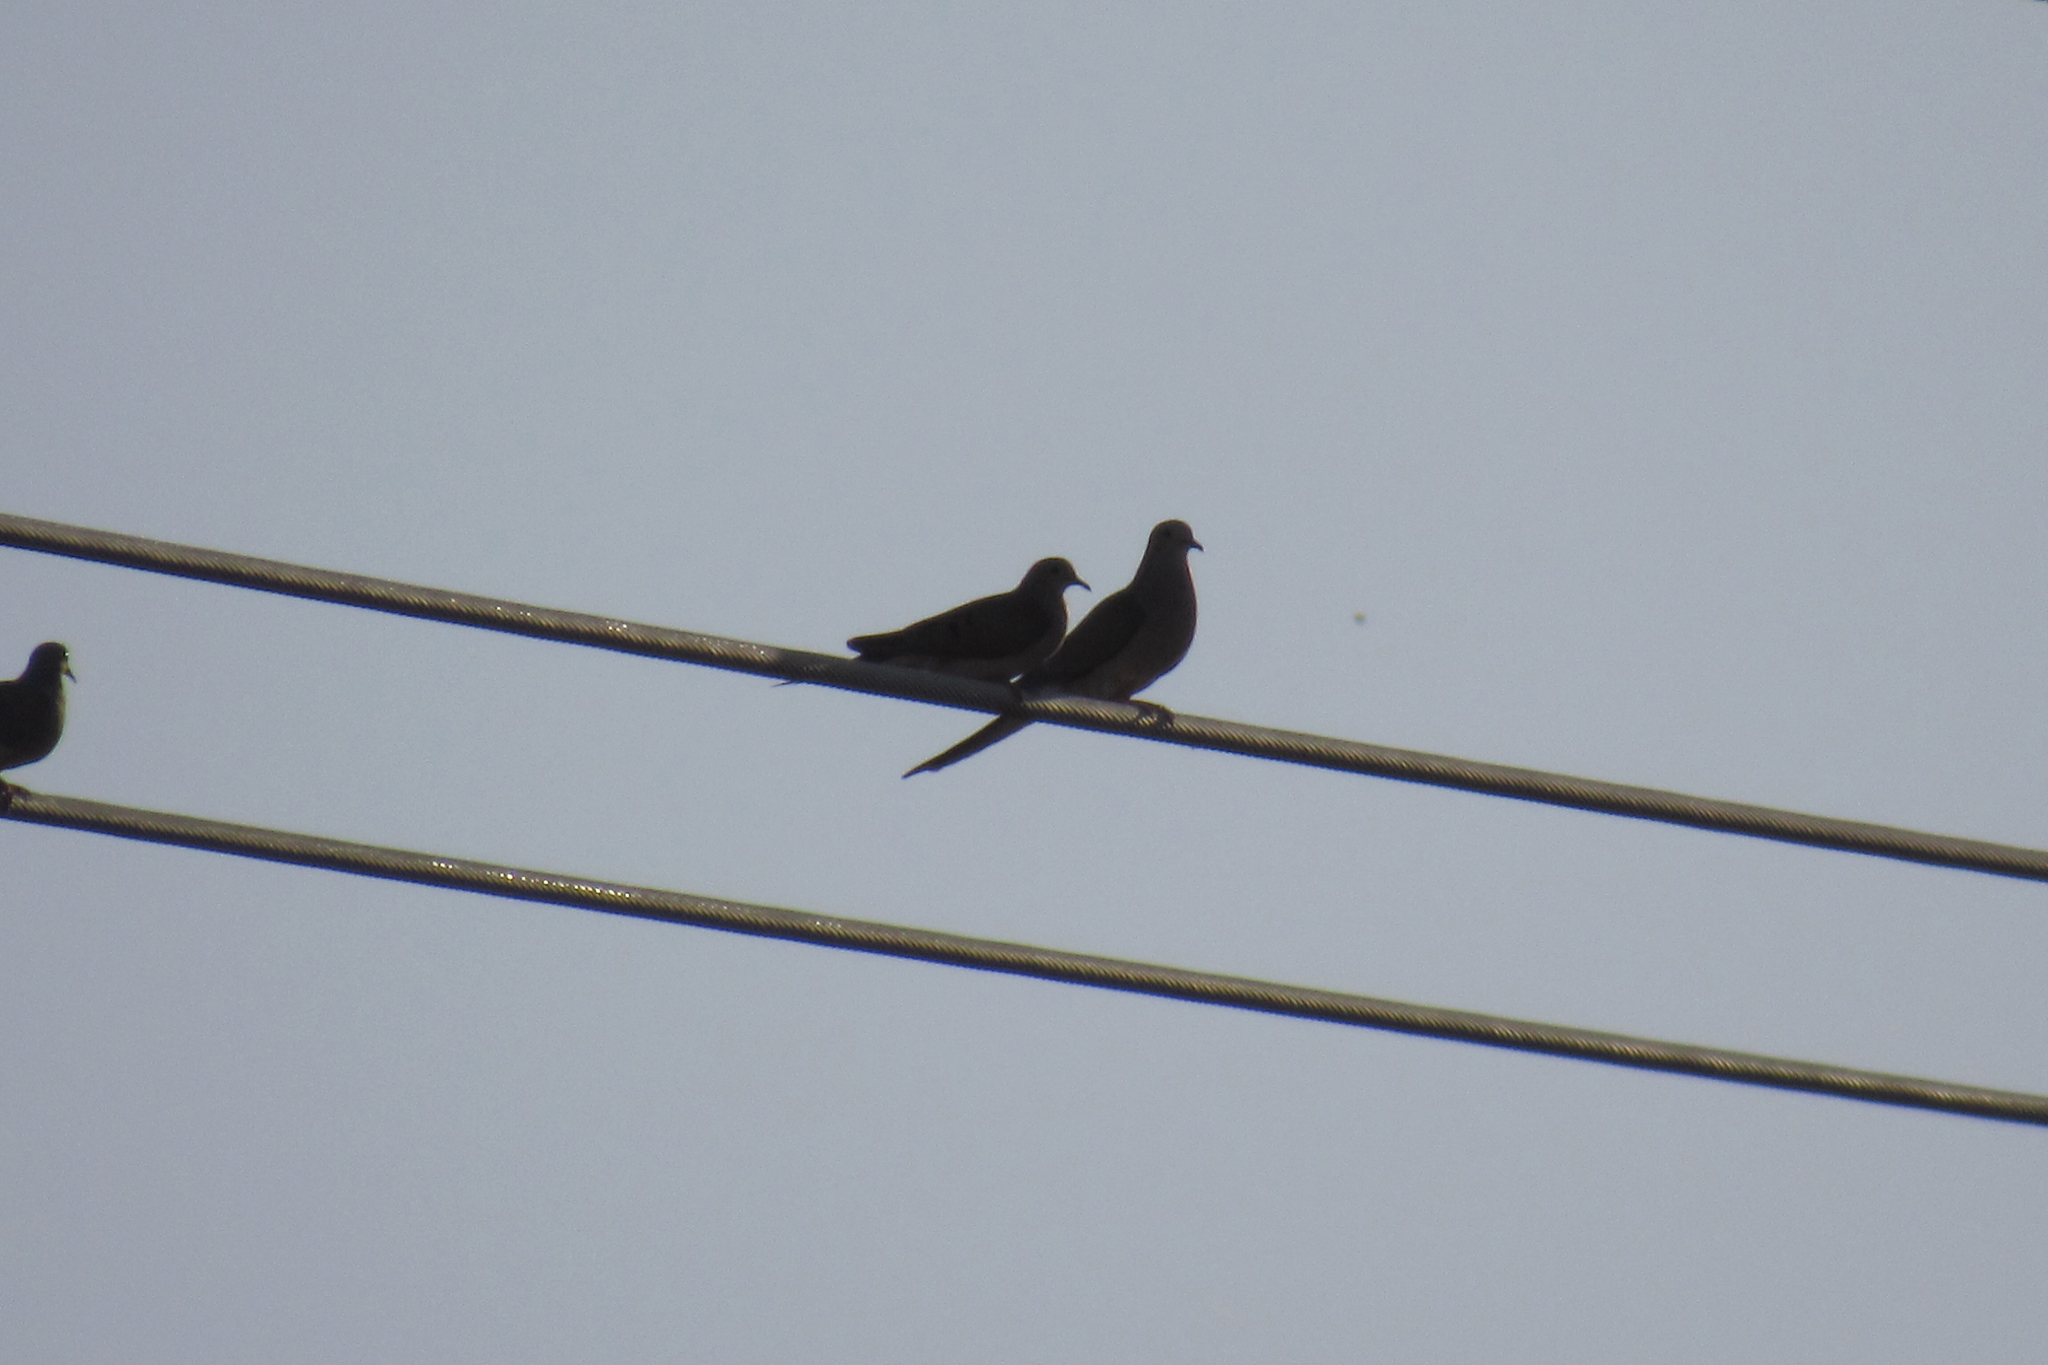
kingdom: Animalia
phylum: Chordata
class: Aves
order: Columbiformes
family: Columbidae
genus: Zenaida
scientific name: Zenaida macroura
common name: Mourning dove
